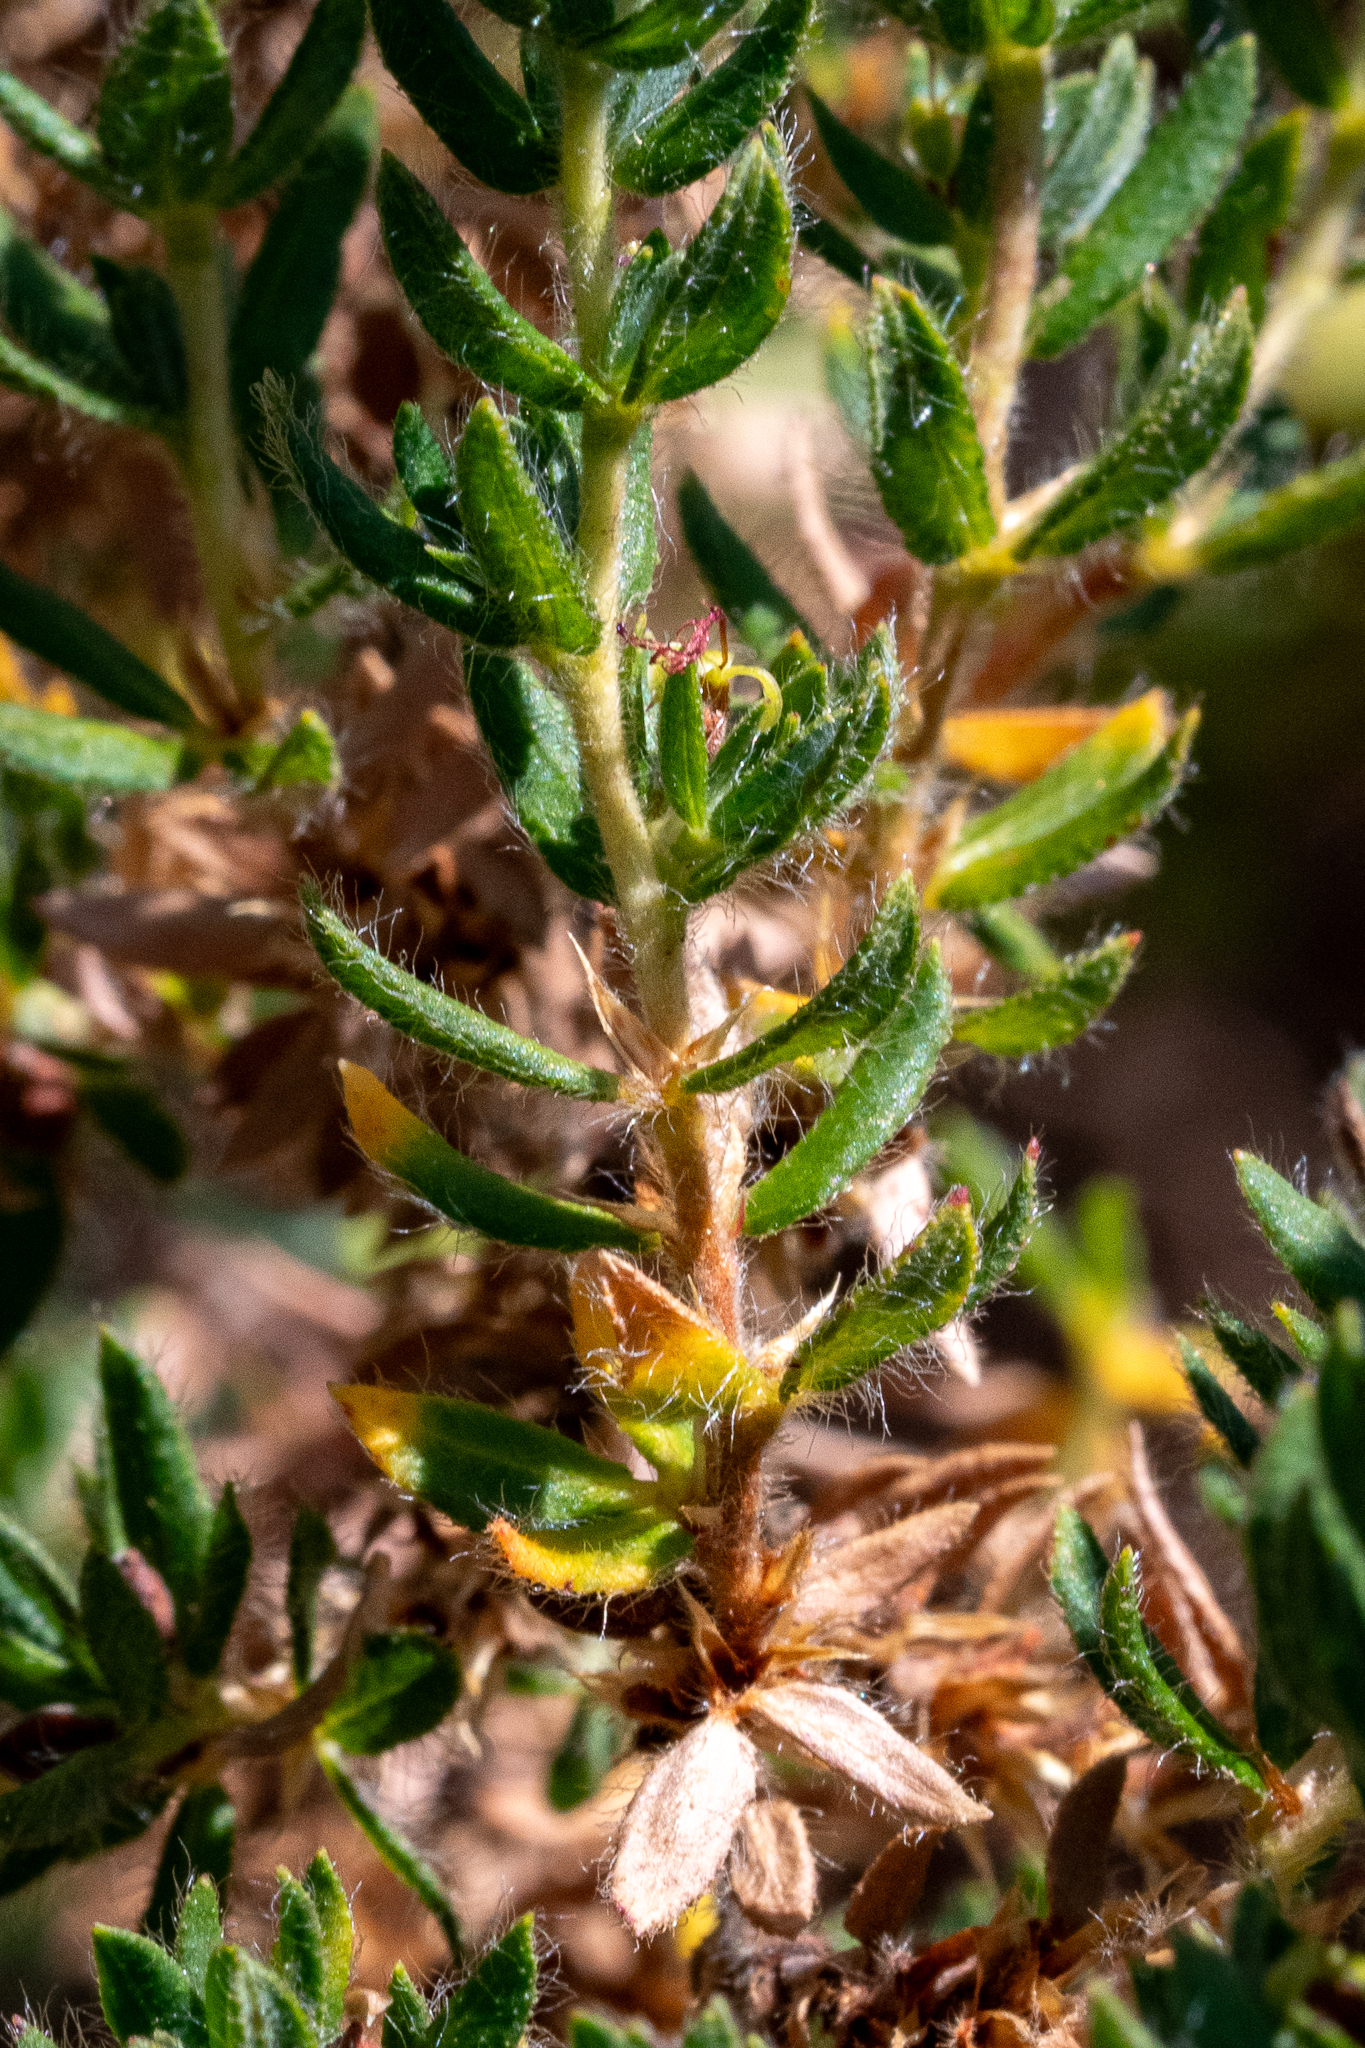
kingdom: Plantae
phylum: Tracheophyta
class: Magnoliopsida
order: Rosales
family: Rosaceae
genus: Cliffortia
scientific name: Cliffortia polygonifolia
